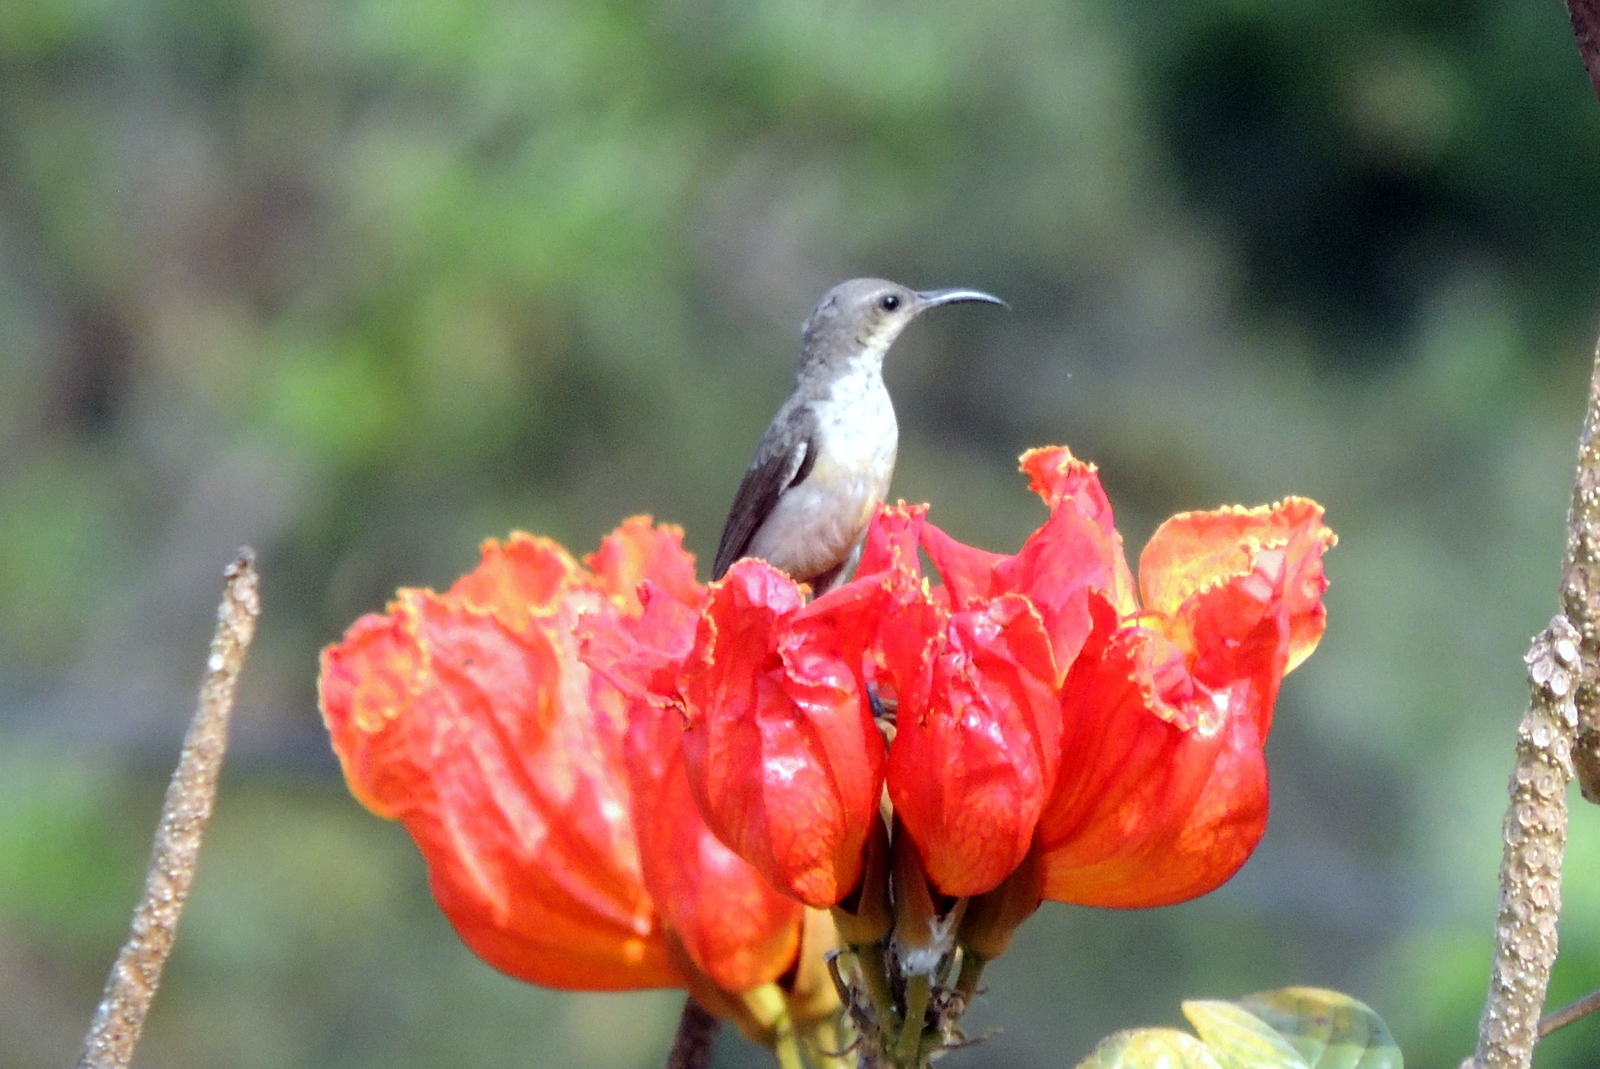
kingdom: Animalia
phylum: Chordata
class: Aves
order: Passeriformes
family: Nectariniidae
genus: Cinnyris
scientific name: Cinnyris asiaticus
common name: Purple sunbird
